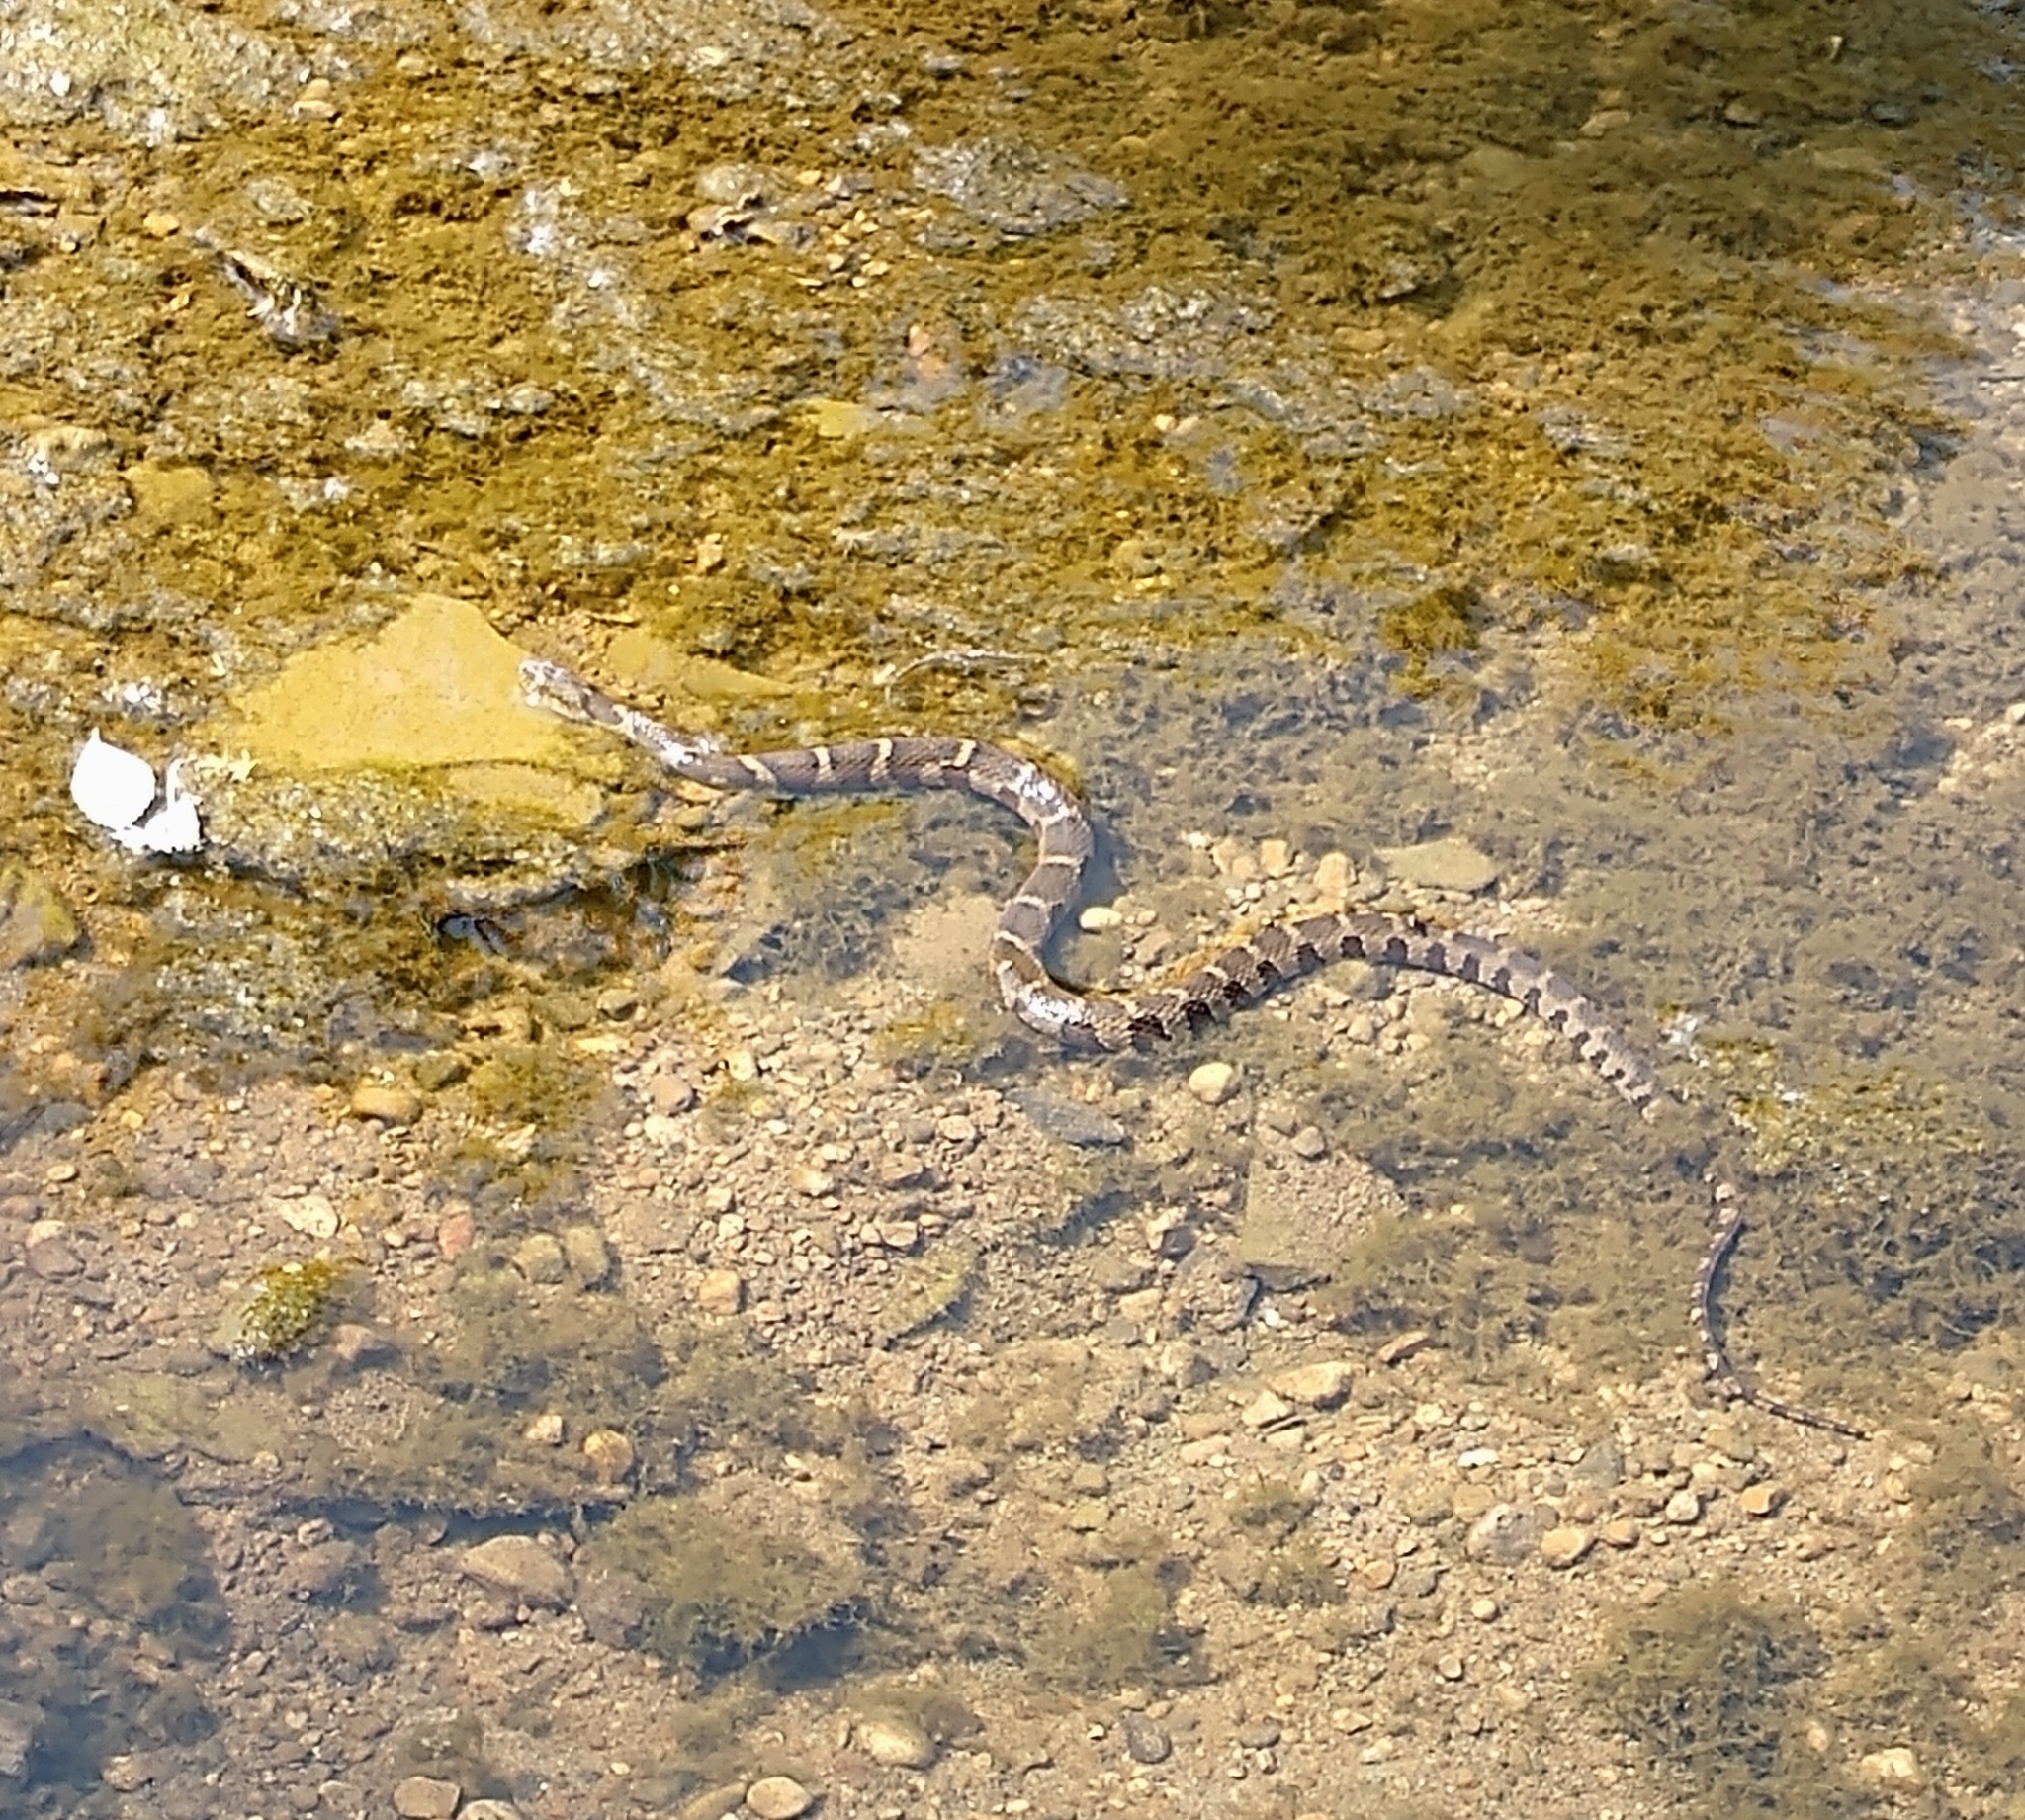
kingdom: Animalia
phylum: Chordata
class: Squamata
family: Colubridae
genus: Nerodia
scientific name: Nerodia sipedon
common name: Northern water snake
